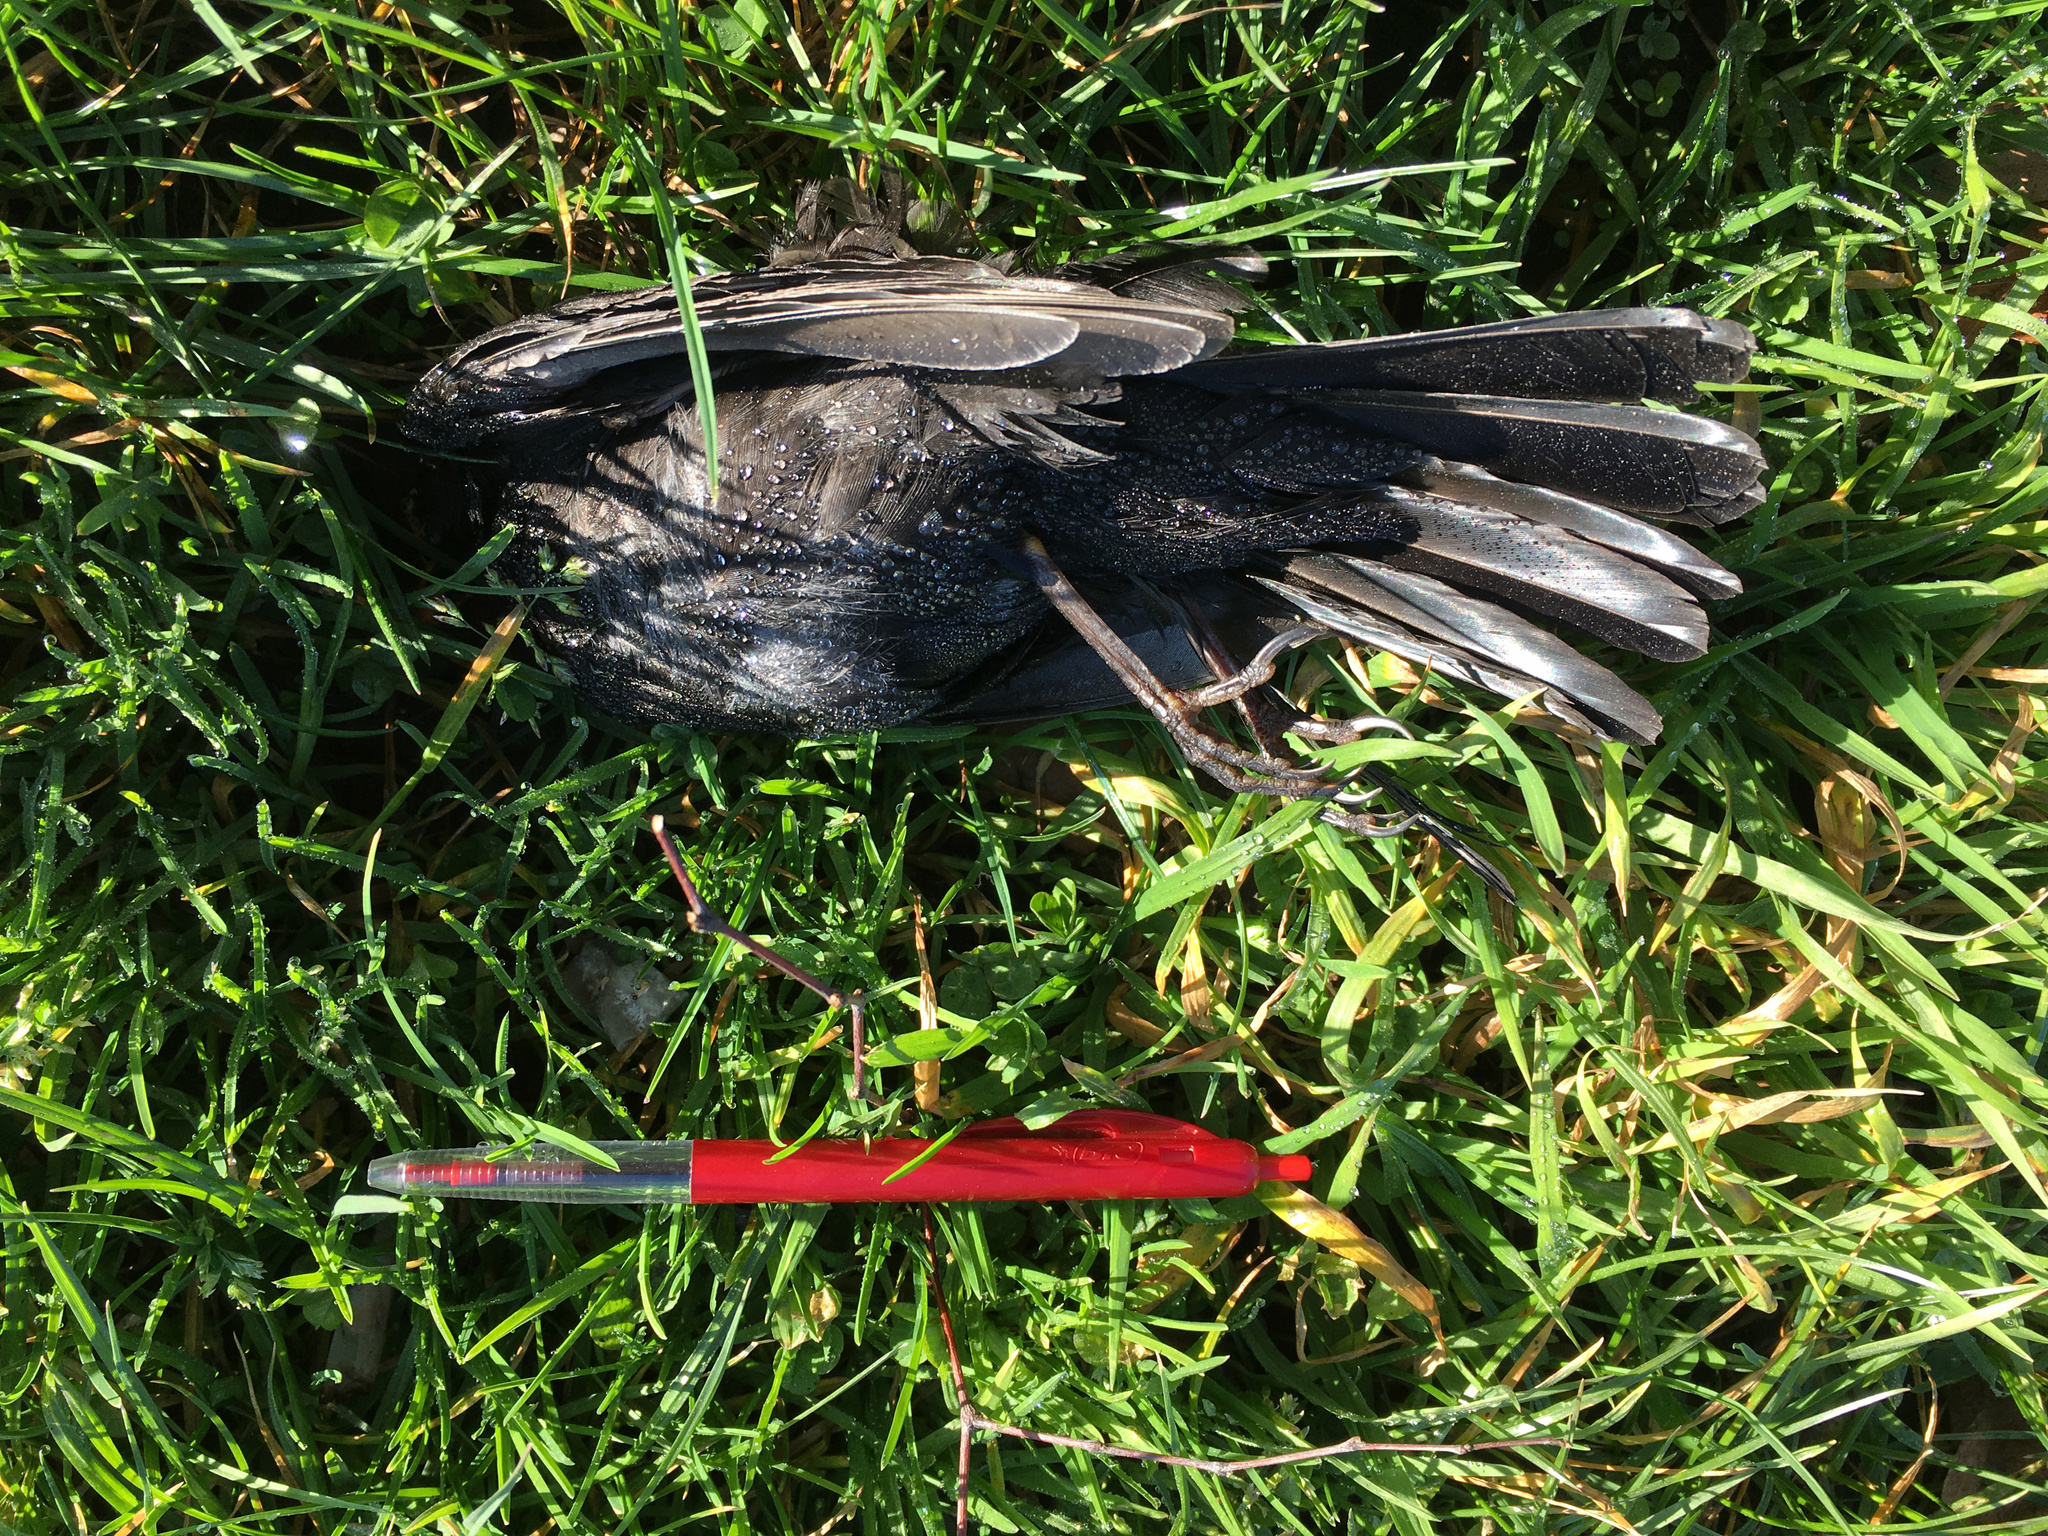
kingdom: Animalia
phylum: Chordata
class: Aves
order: Passeriformes
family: Turdidae
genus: Turdus
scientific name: Turdus merula
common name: Common blackbird
